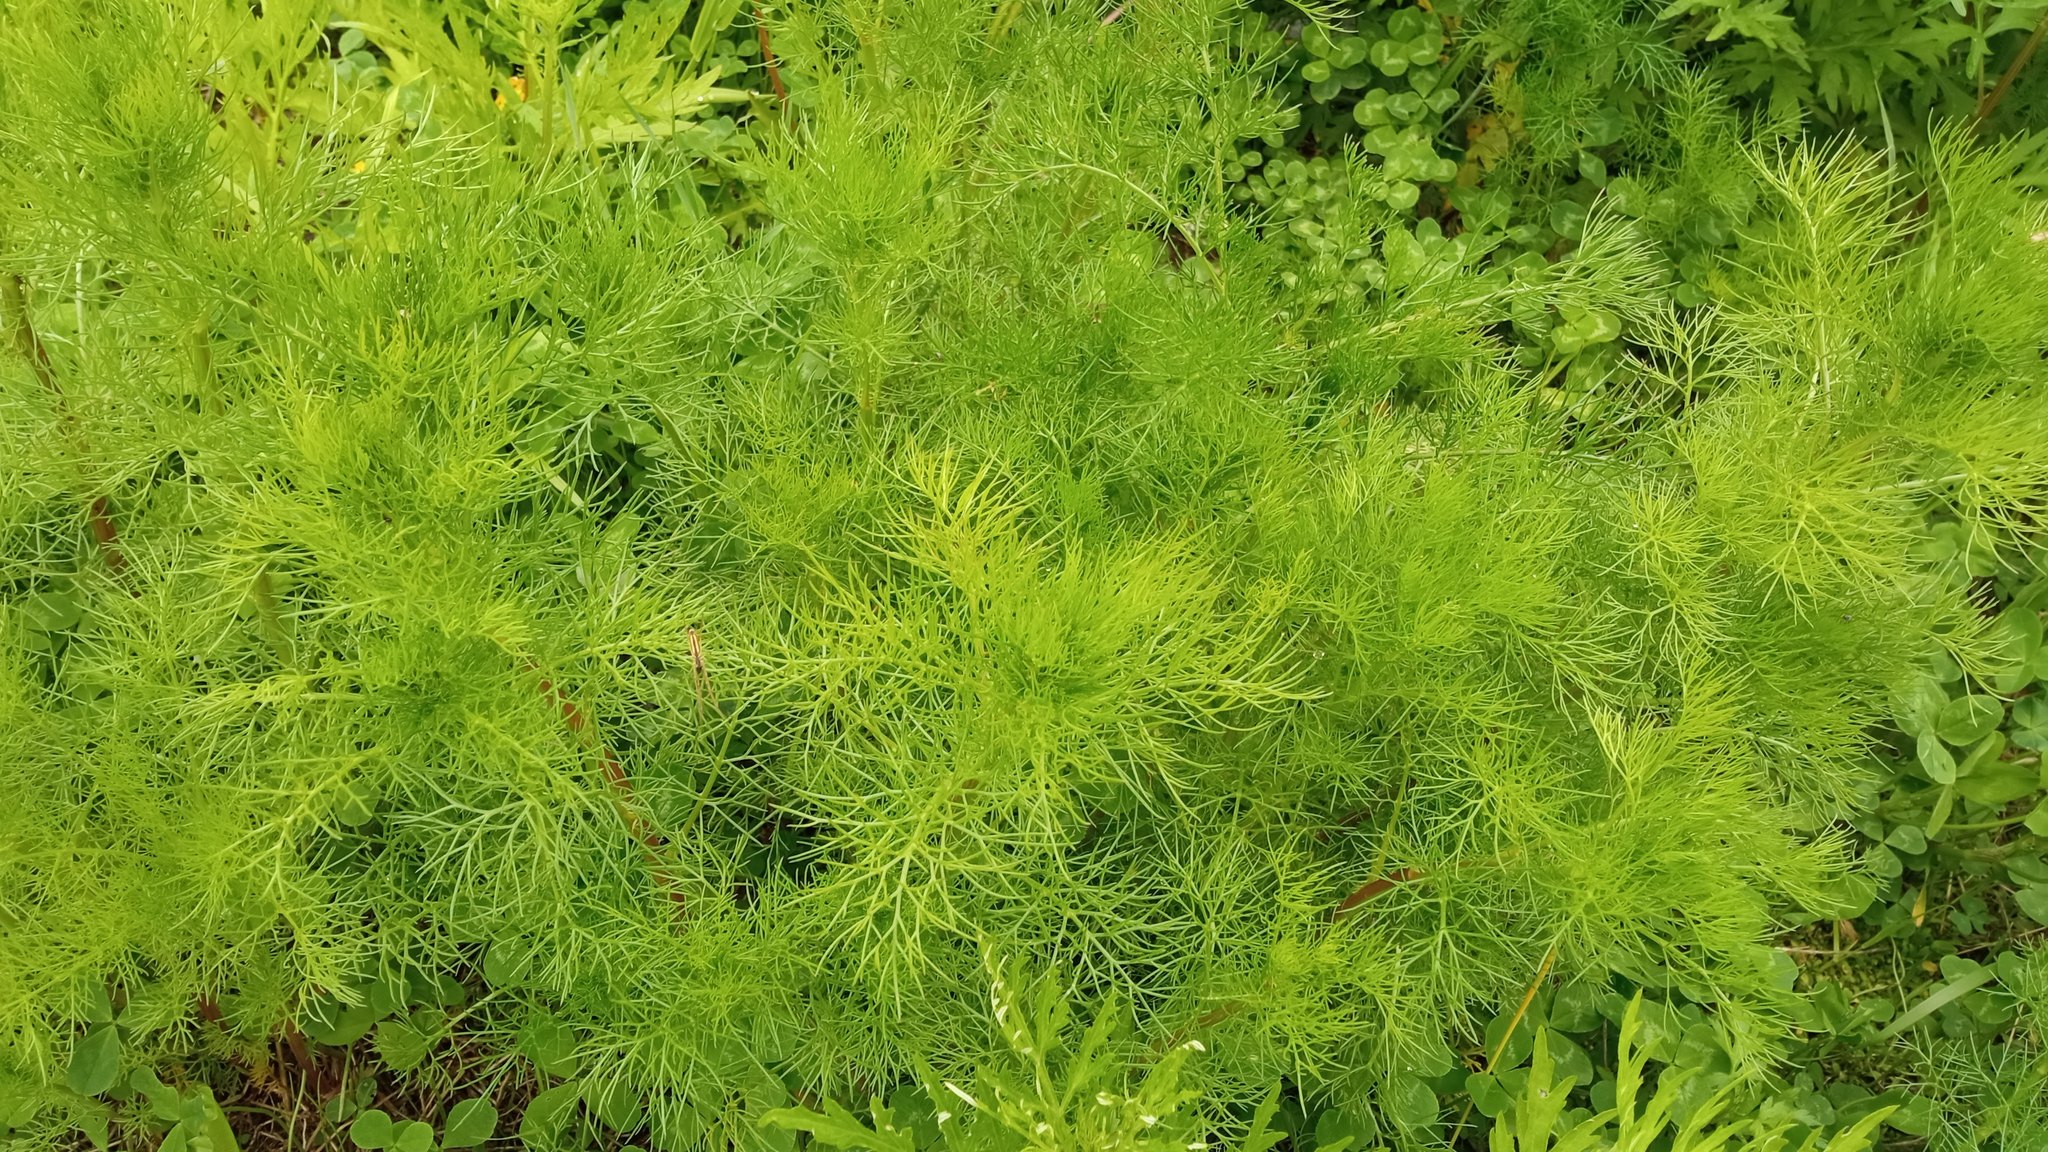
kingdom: Plantae
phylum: Tracheophyta
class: Magnoliopsida
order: Asterales
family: Asteraceae
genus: Tripleurospermum
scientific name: Tripleurospermum inodorum
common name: Scentless mayweed
